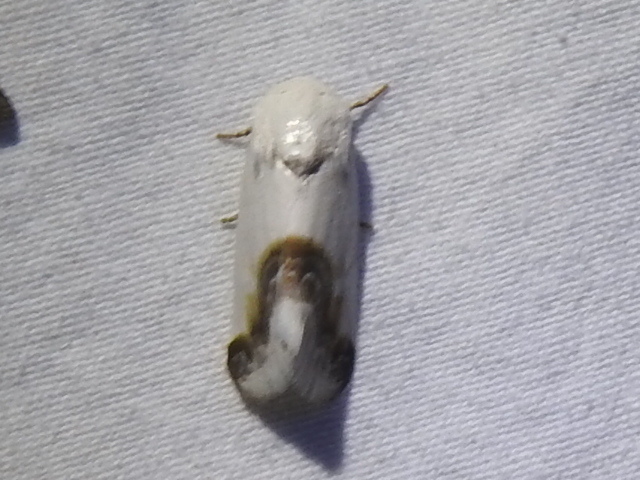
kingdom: Animalia
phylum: Arthropoda
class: Insecta
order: Lepidoptera
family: Noctuidae
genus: Acontia
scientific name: Acontia cretata
